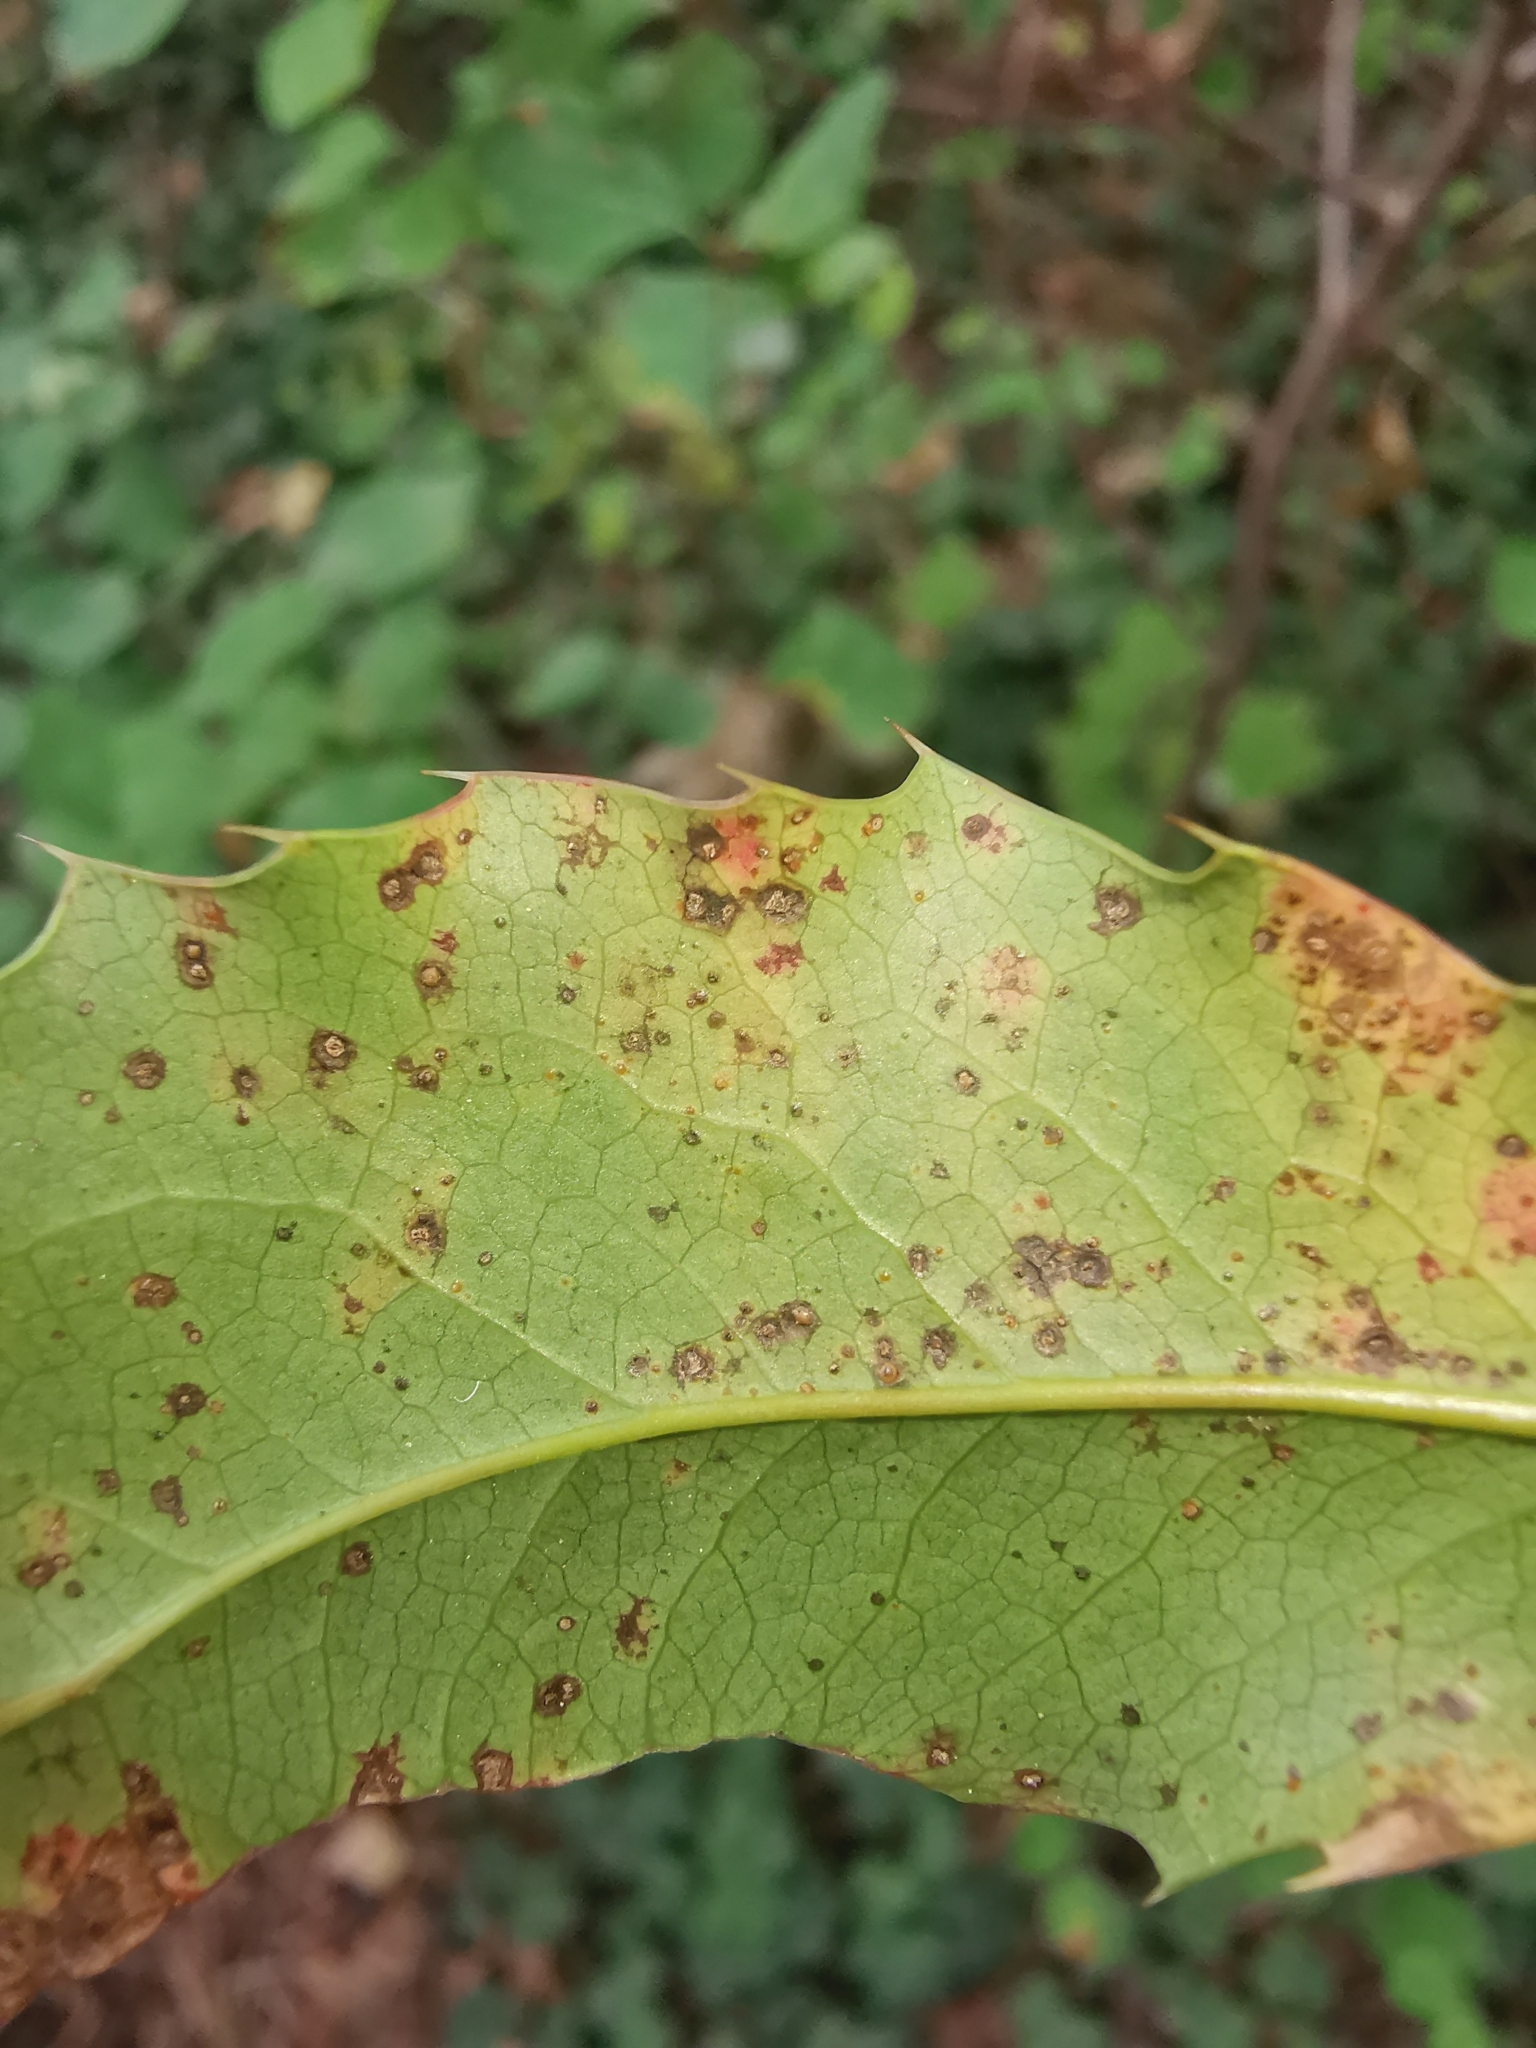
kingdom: Fungi
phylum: Basidiomycota
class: Pucciniomycetes
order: Pucciniales
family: Pucciniaceae
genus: Cumminsiella
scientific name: Cumminsiella mirabilissima
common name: Mahonia rust
